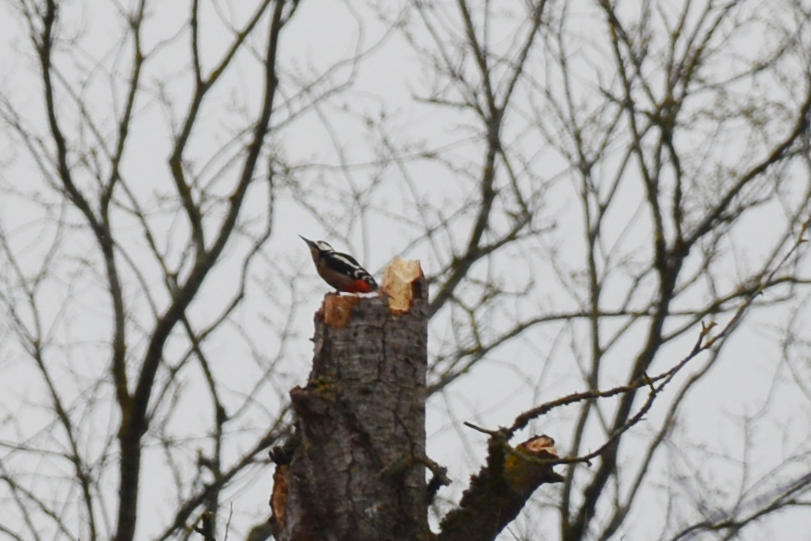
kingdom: Animalia
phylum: Chordata
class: Aves
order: Piciformes
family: Picidae
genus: Dendrocopos
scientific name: Dendrocopos major
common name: Great spotted woodpecker
